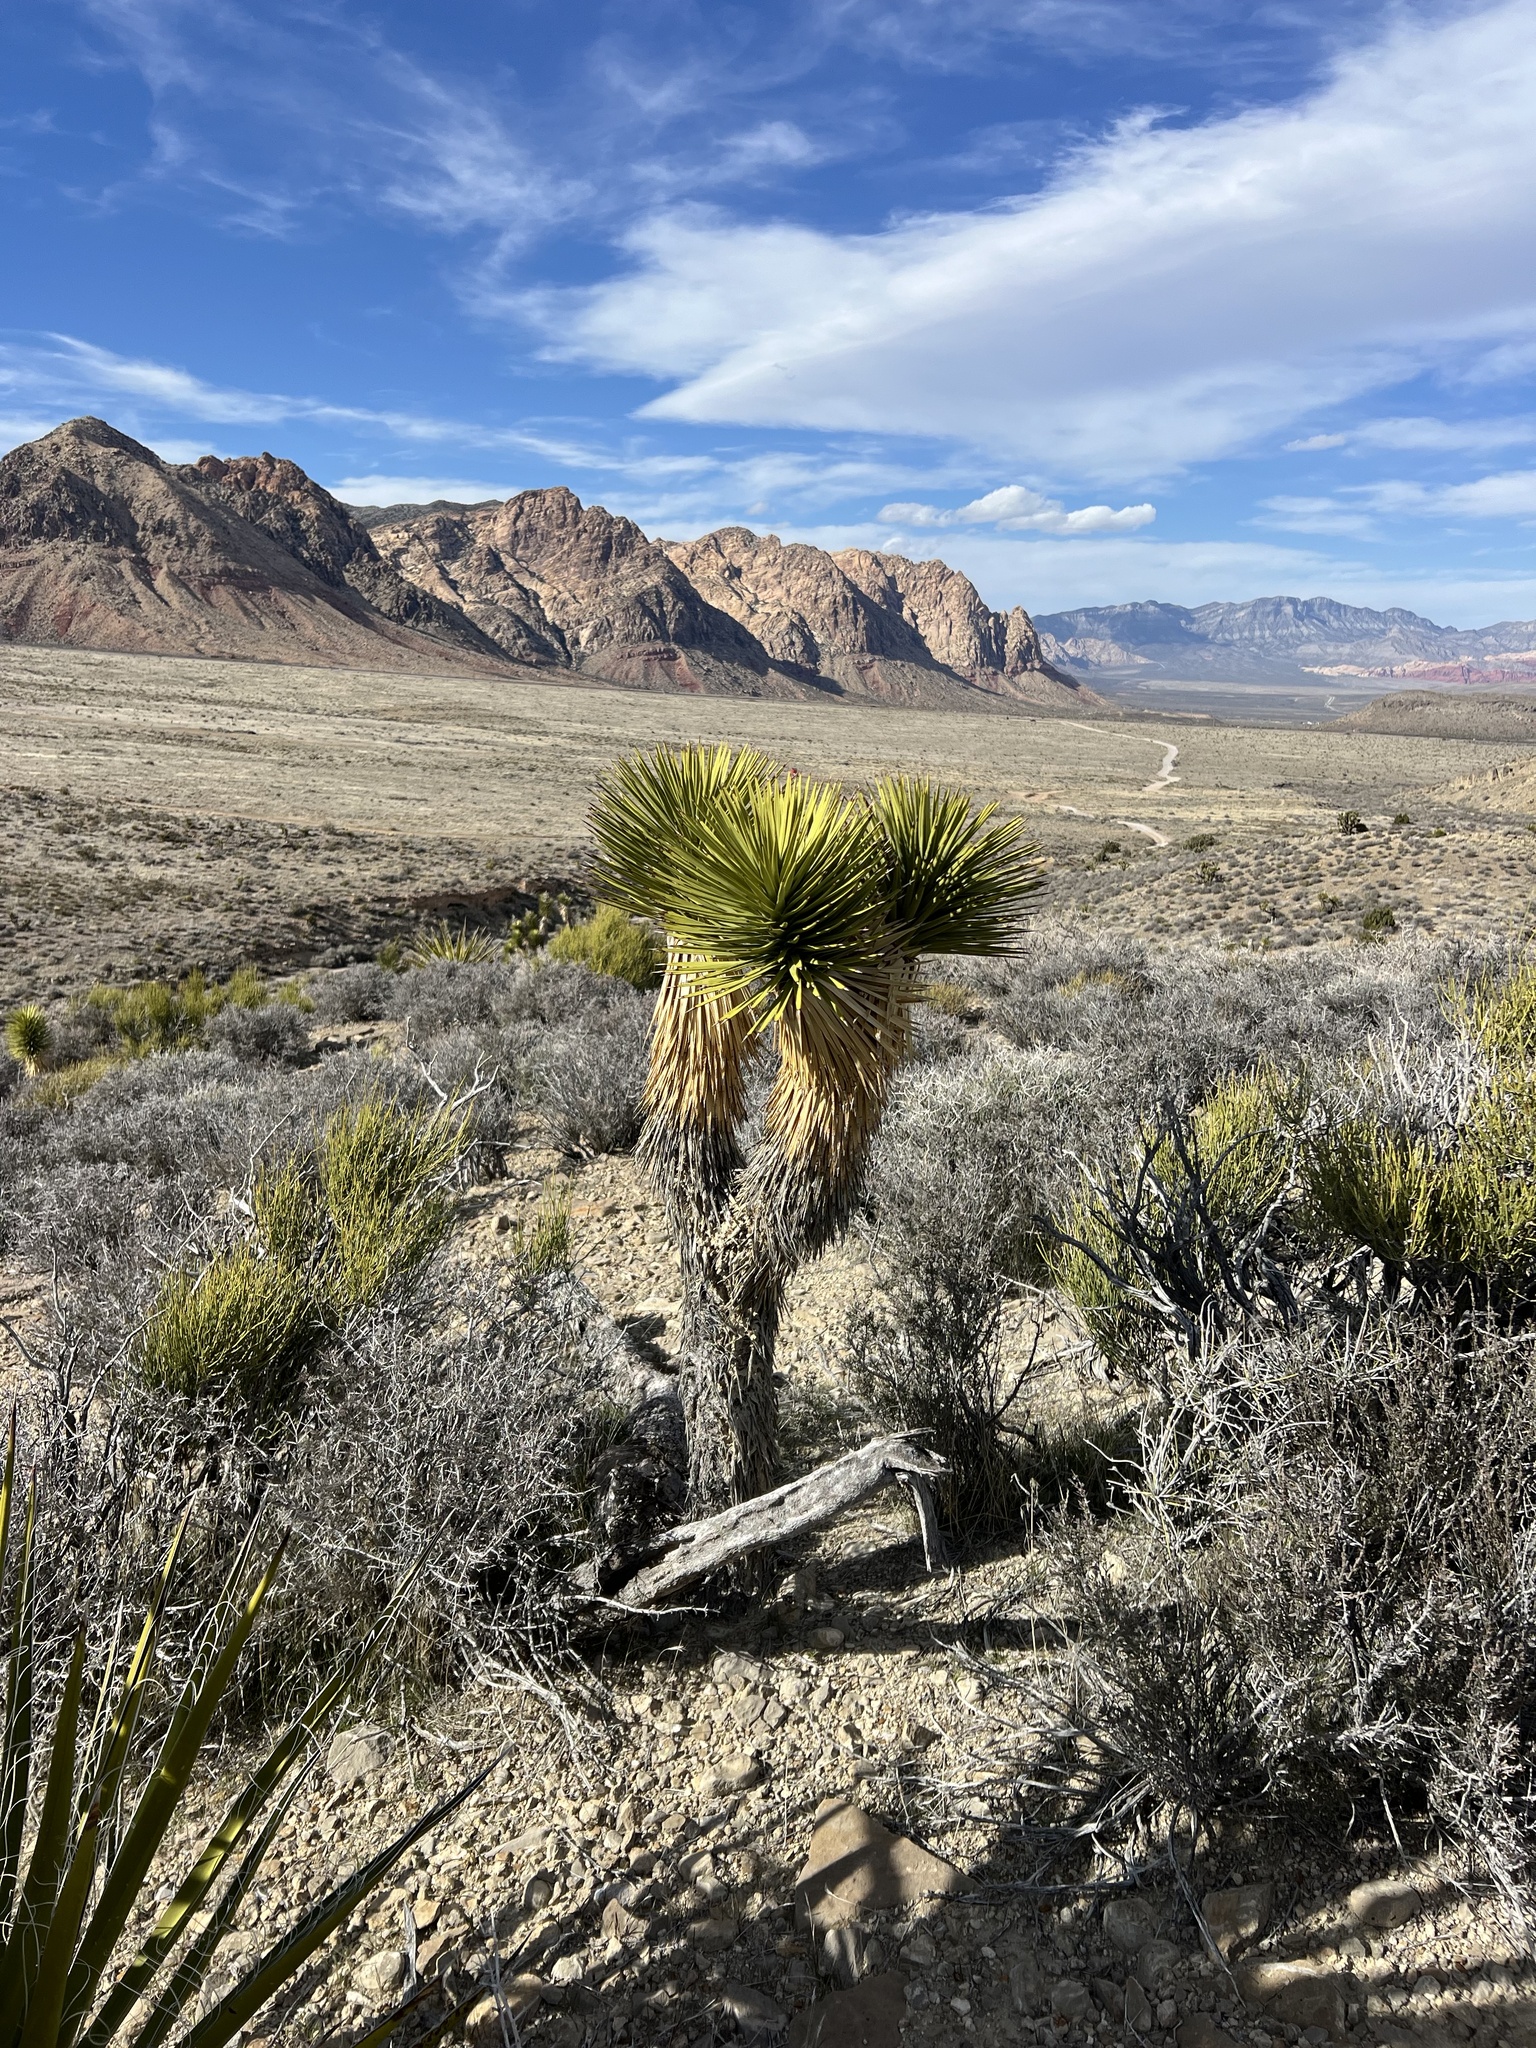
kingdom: Plantae
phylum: Tracheophyta
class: Liliopsida
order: Asparagales
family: Asparagaceae
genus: Yucca
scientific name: Yucca brevifolia
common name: Joshua tree
